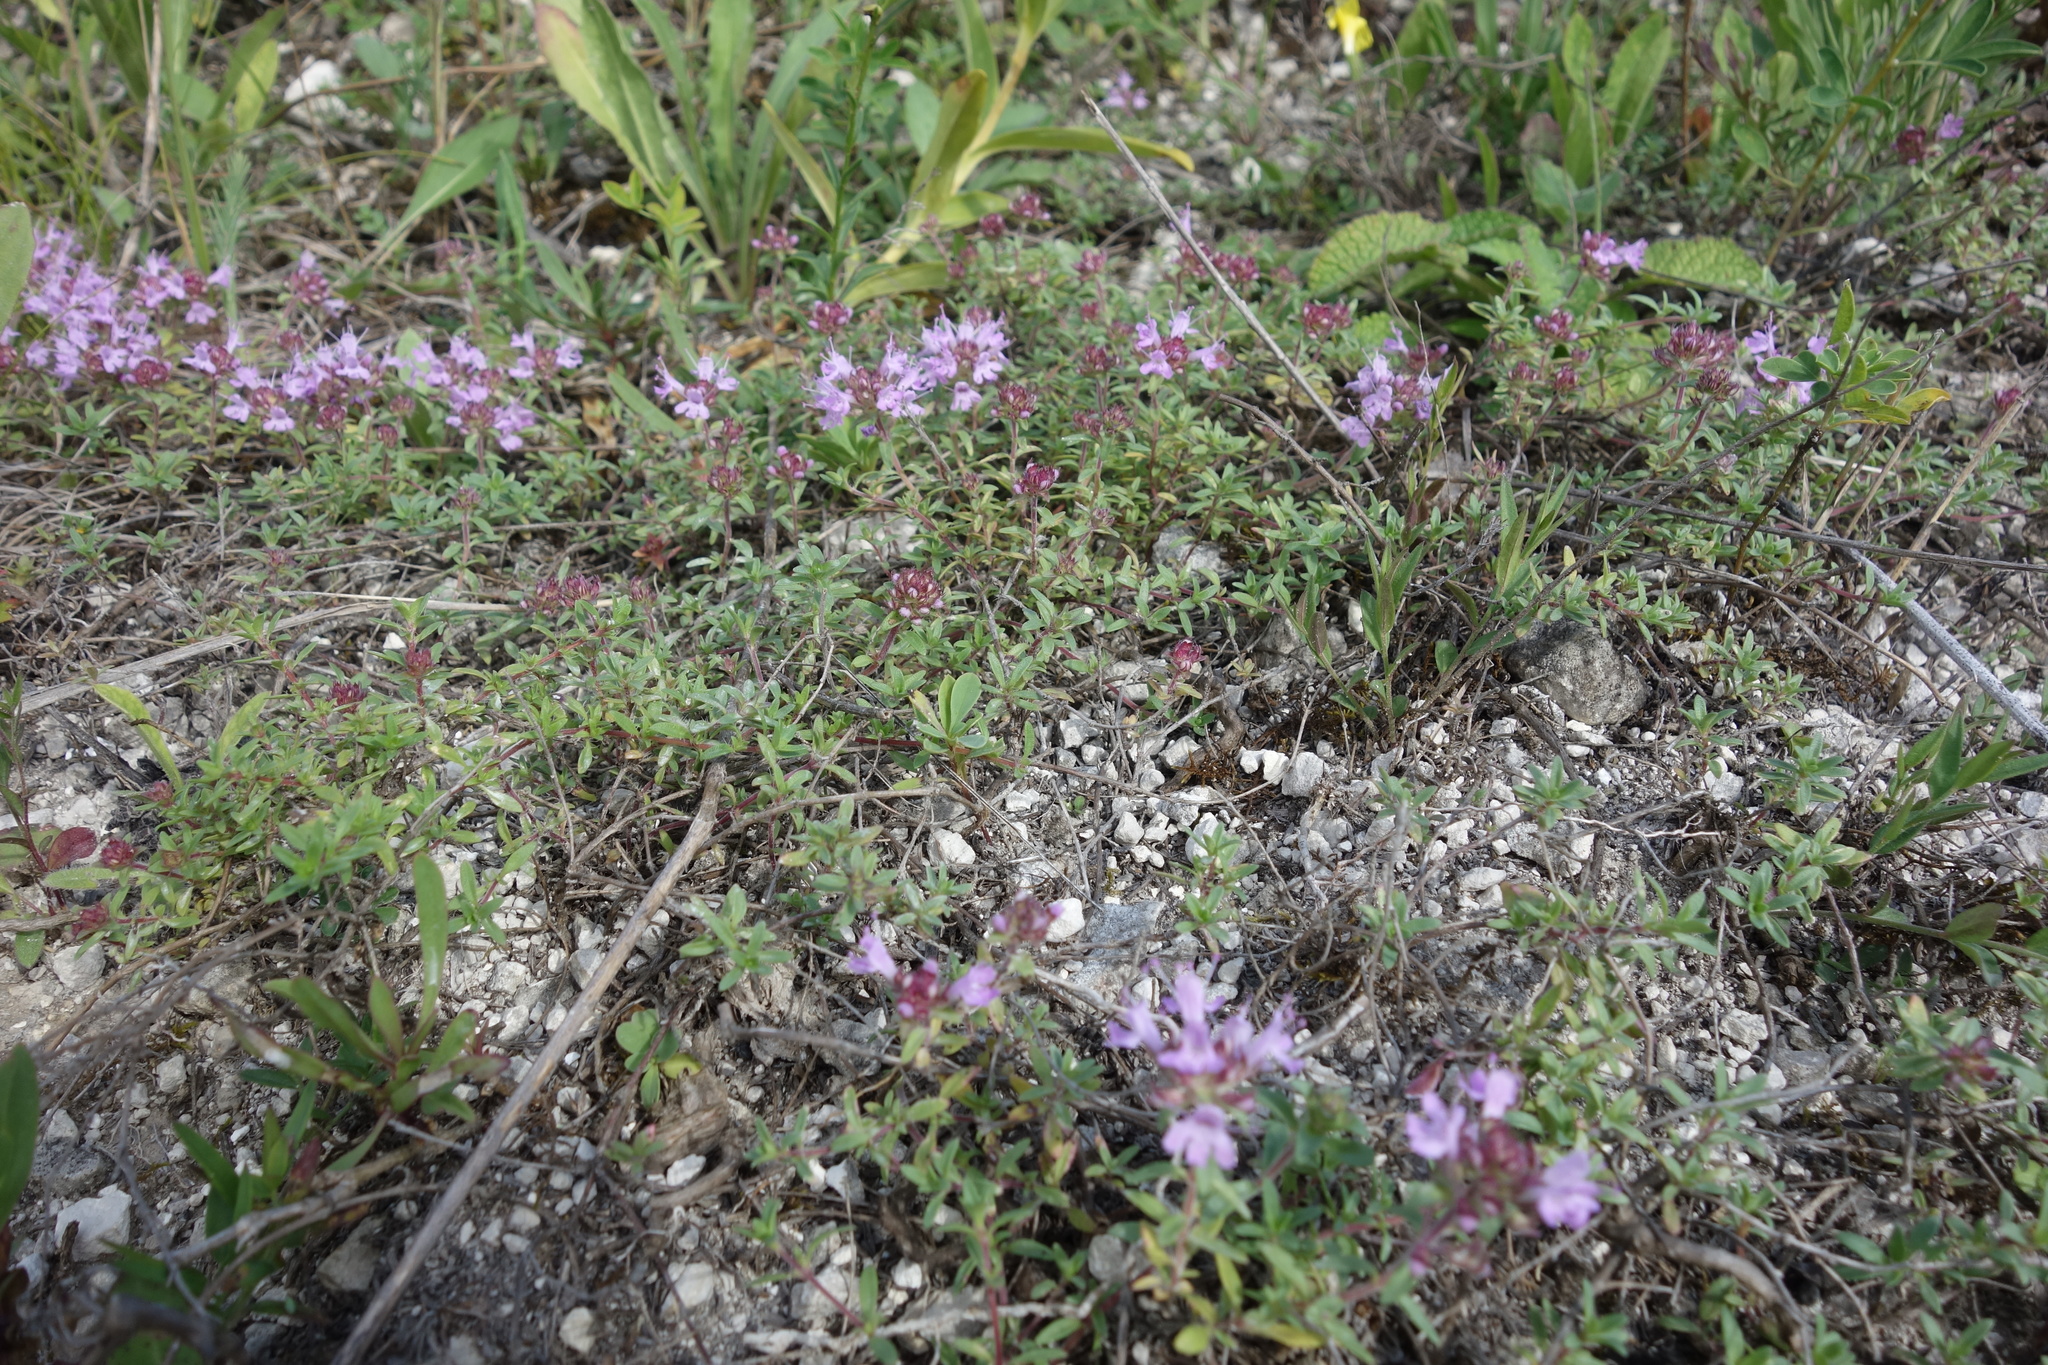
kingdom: Plantae
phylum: Tracheophyta
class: Magnoliopsida
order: Lamiales
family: Lamiaceae
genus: Thymus
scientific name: Thymus calcareus
